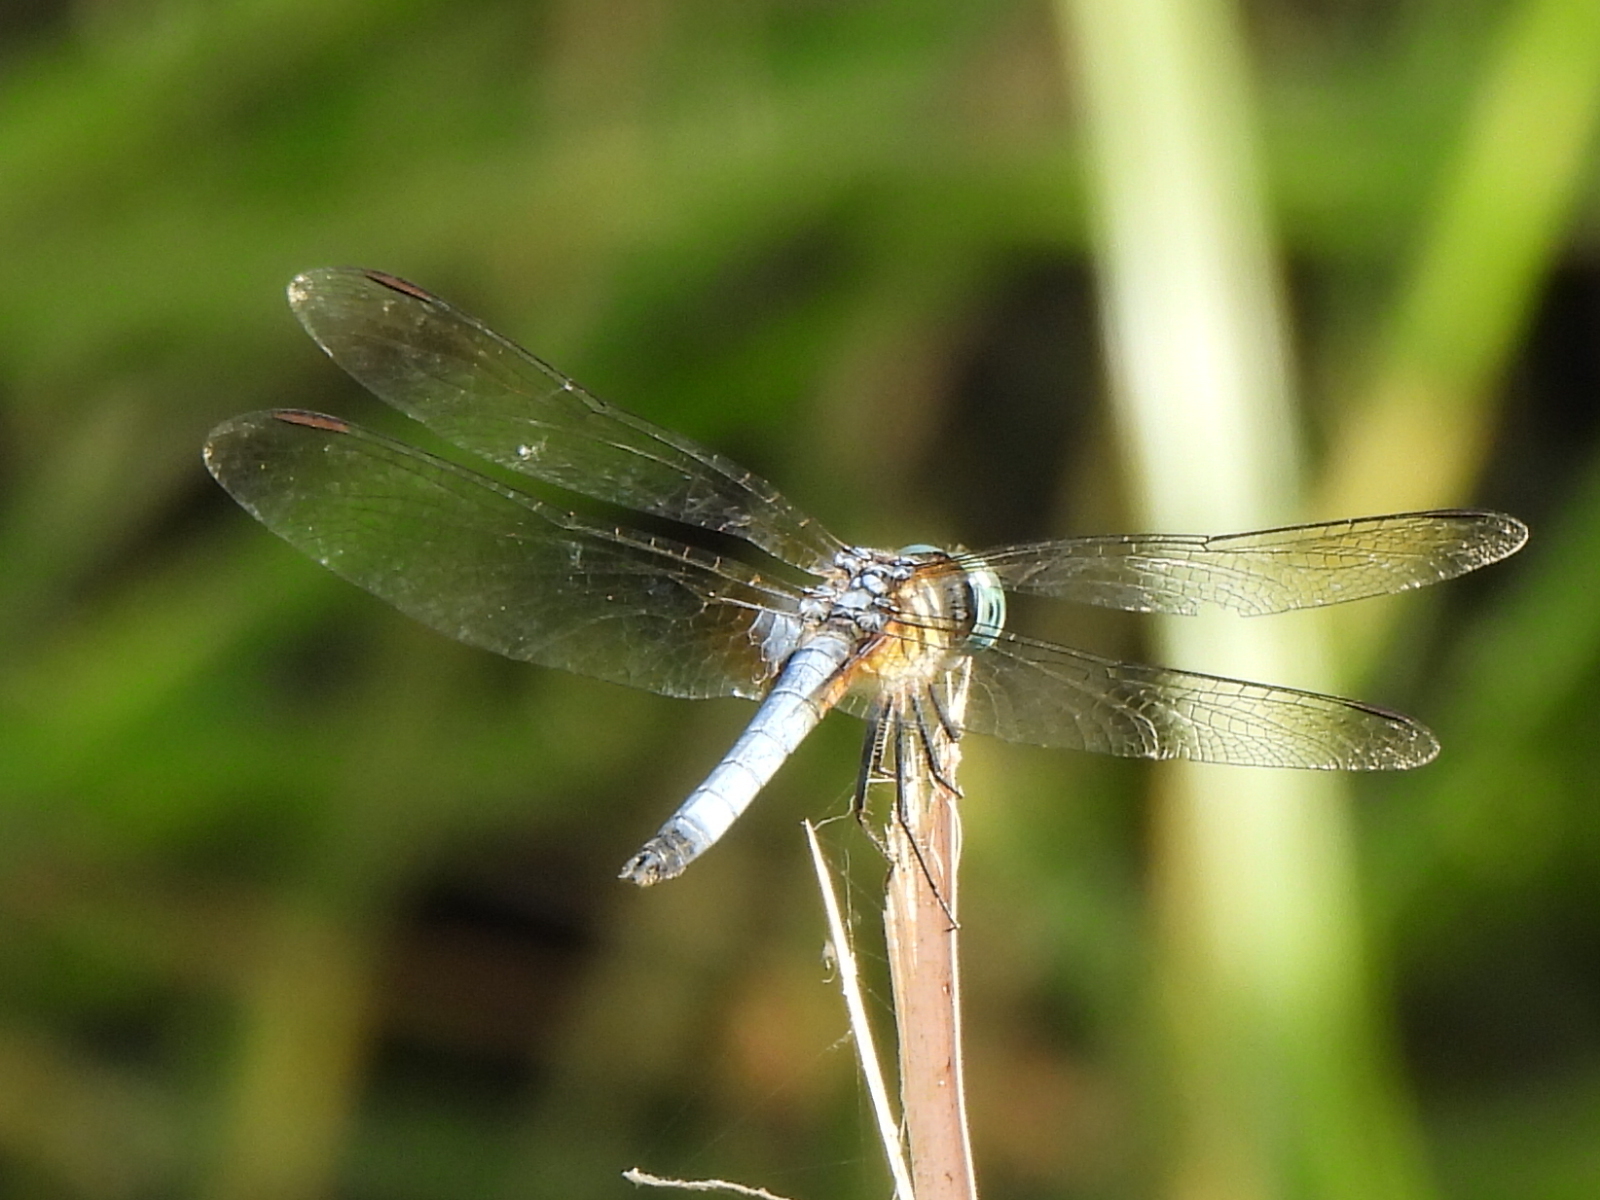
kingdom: Animalia
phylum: Arthropoda
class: Insecta
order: Odonata
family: Libellulidae
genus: Pachydiplax
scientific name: Pachydiplax longipennis
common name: Blue dasher
